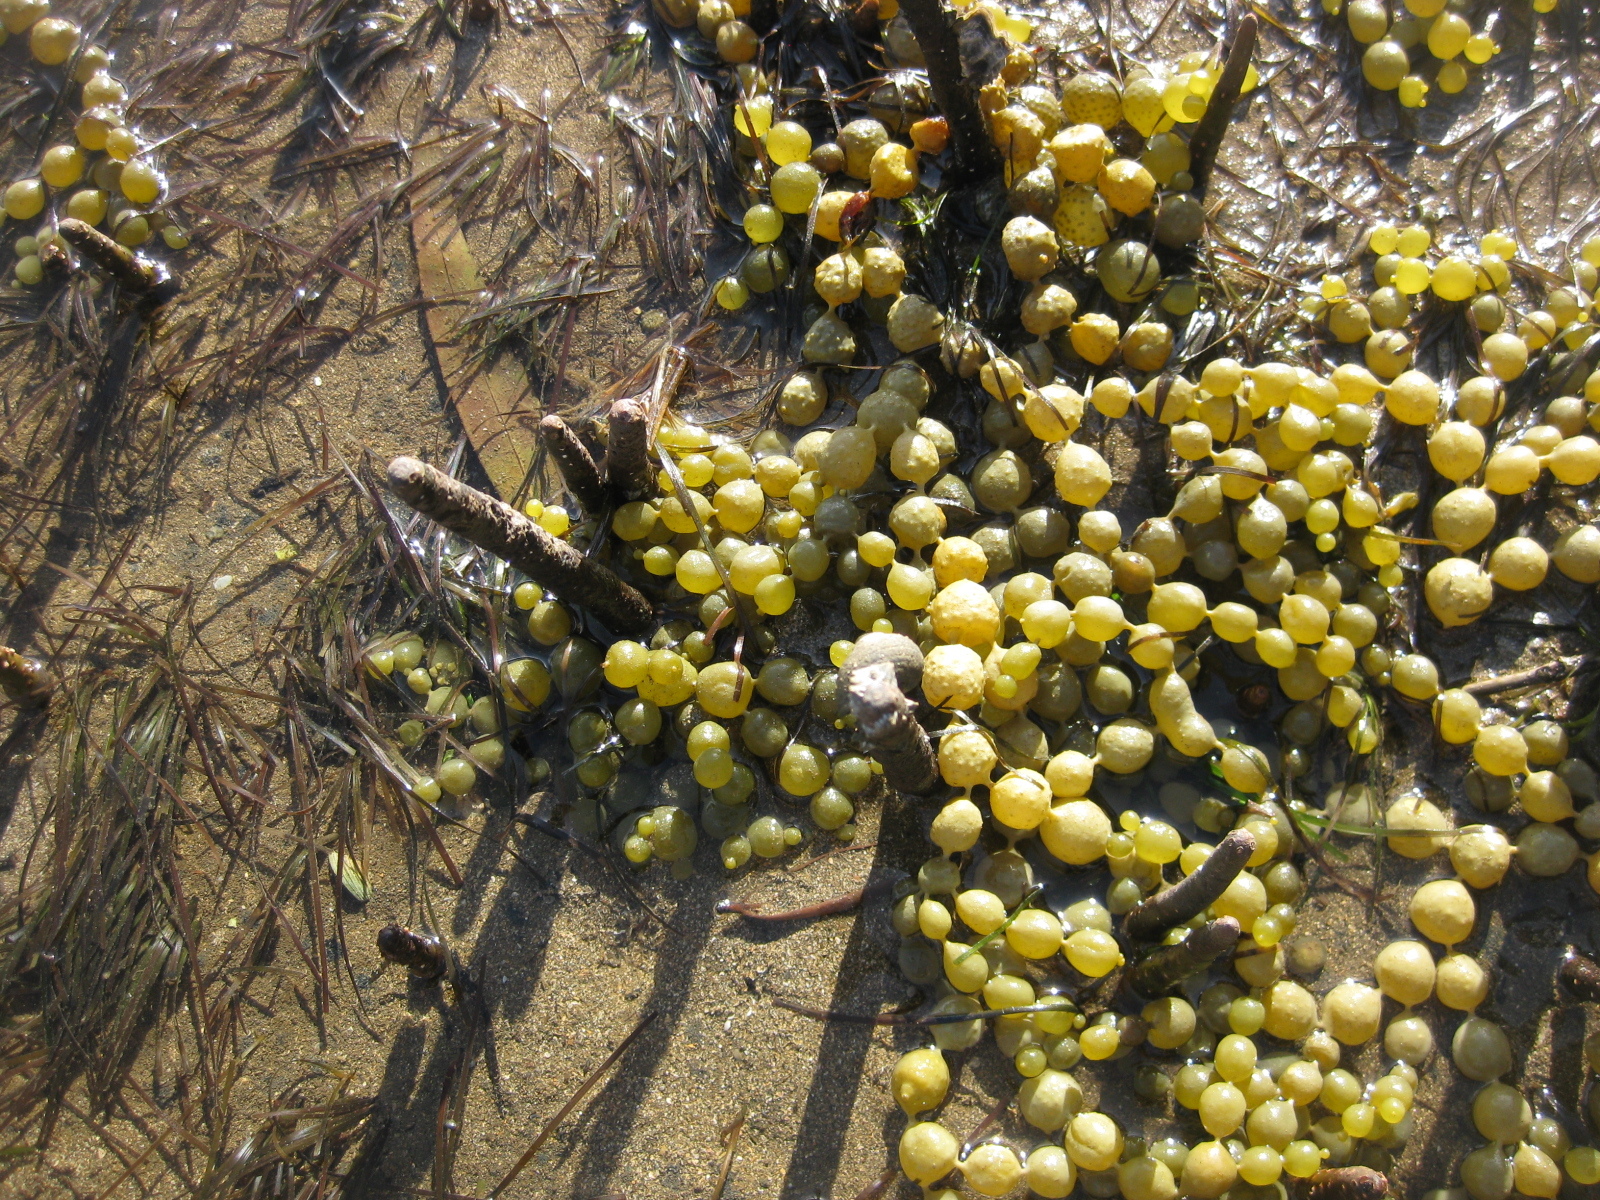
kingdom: Chromista
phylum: Ochrophyta
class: Phaeophyceae
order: Fucales
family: Hormosiraceae
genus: Hormosira
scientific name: Hormosira banksii
